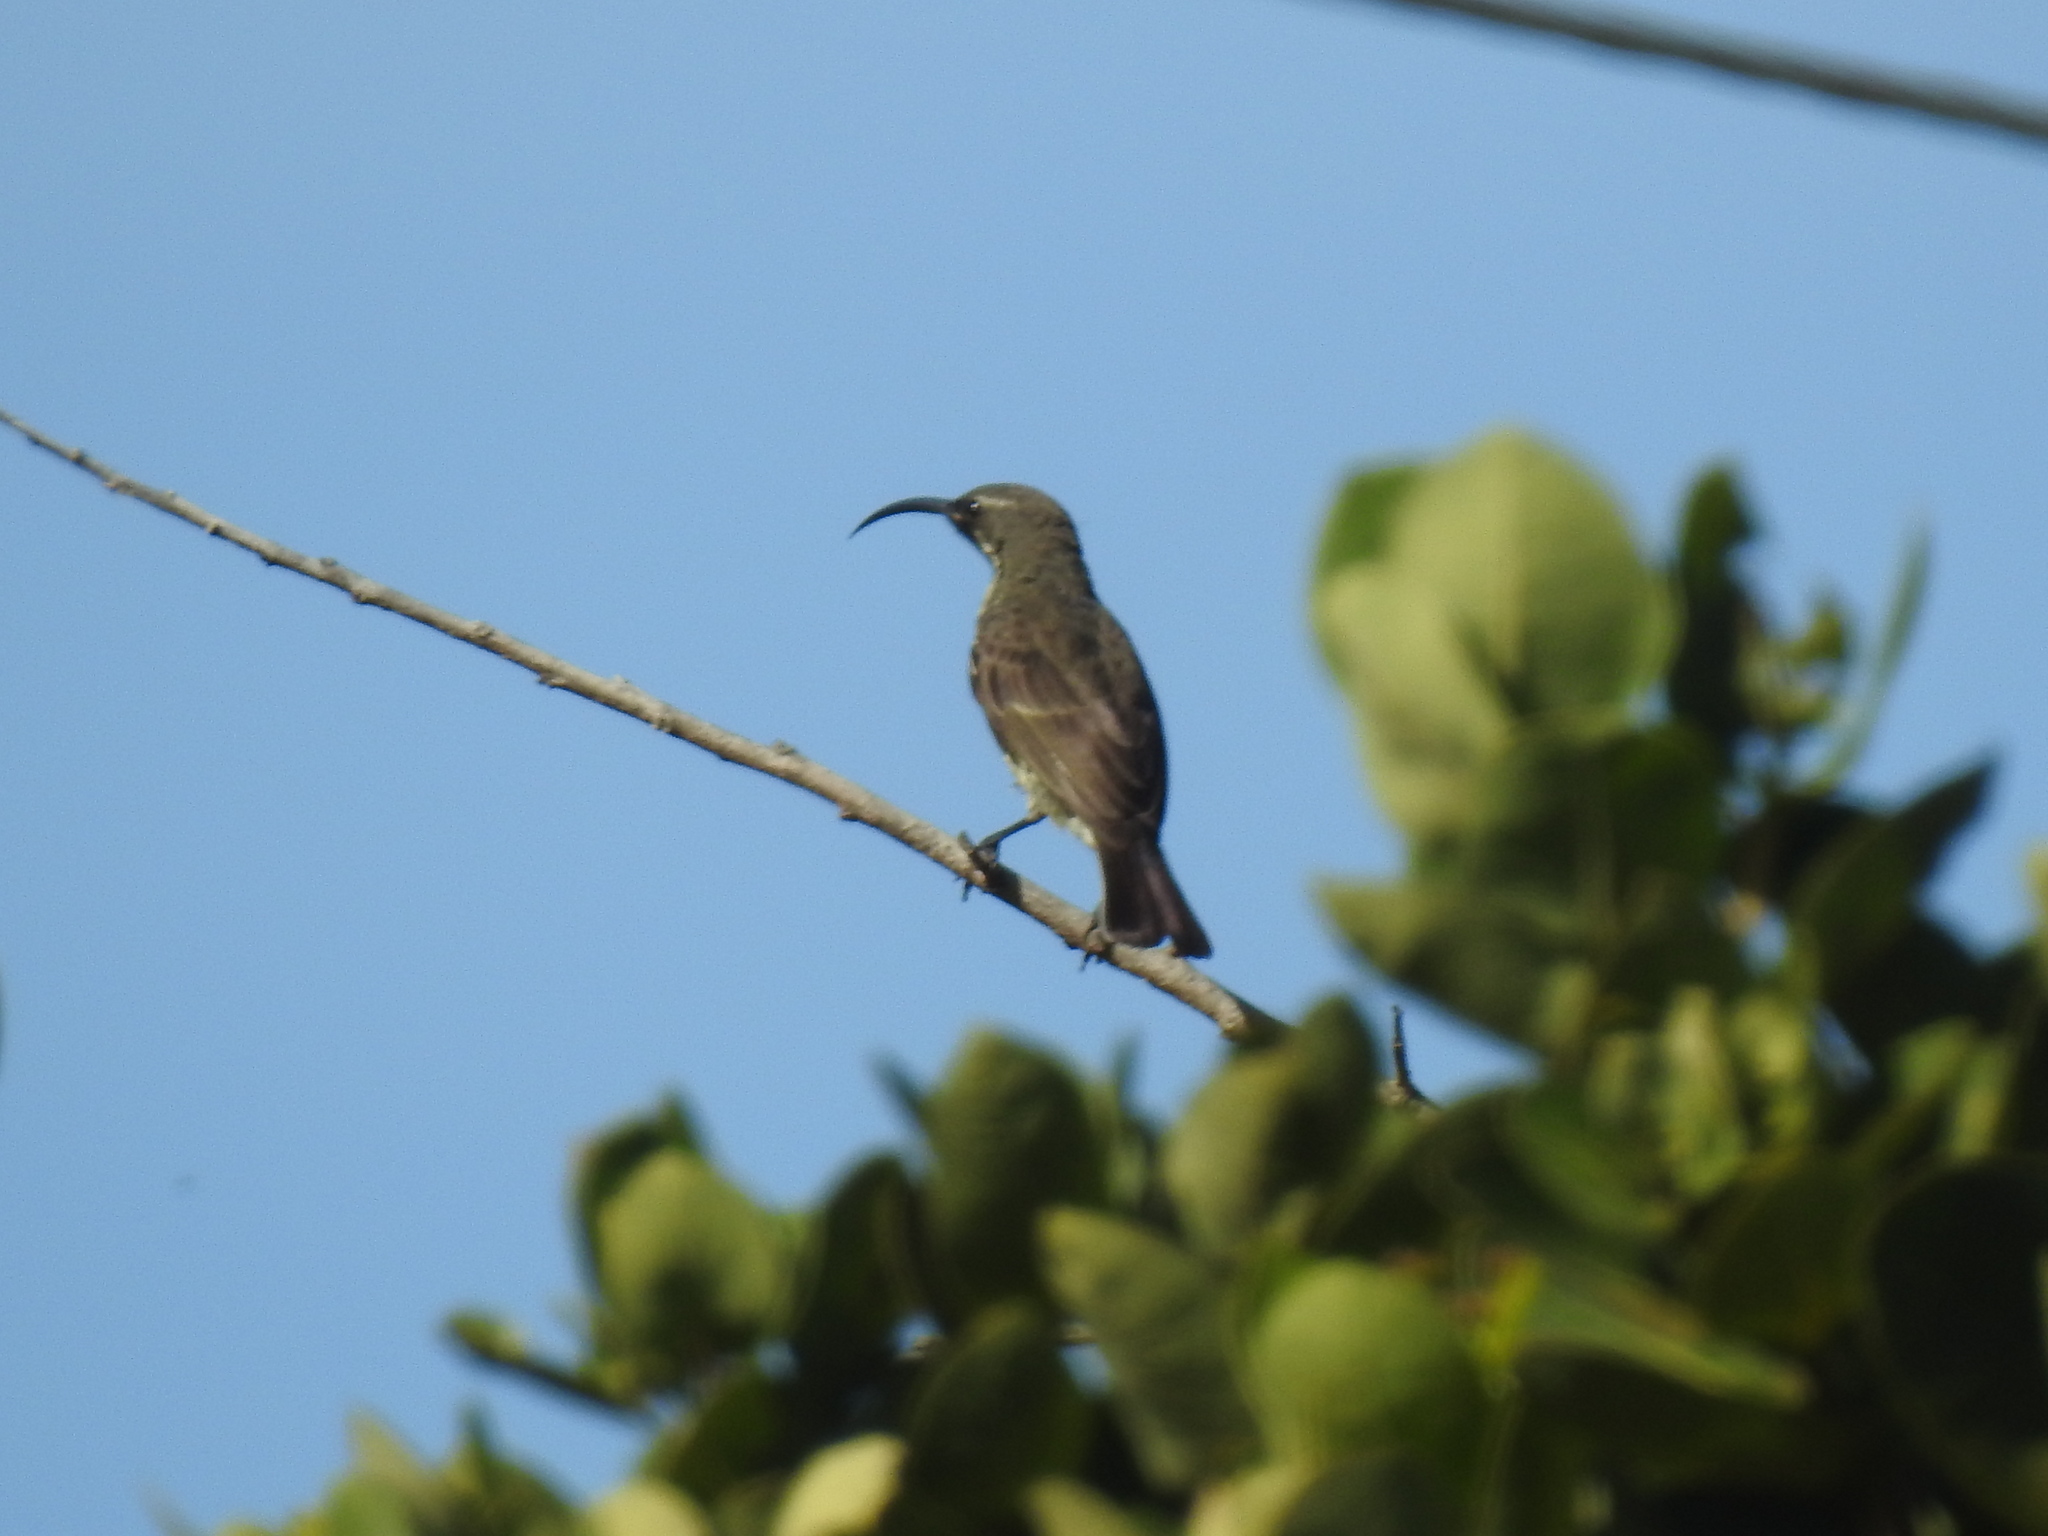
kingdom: Animalia
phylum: Chordata
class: Aves
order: Passeriformes
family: Nectariniidae
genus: Chalcomitra
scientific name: Chalcomitra amethystina
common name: Amethyst sunbird
